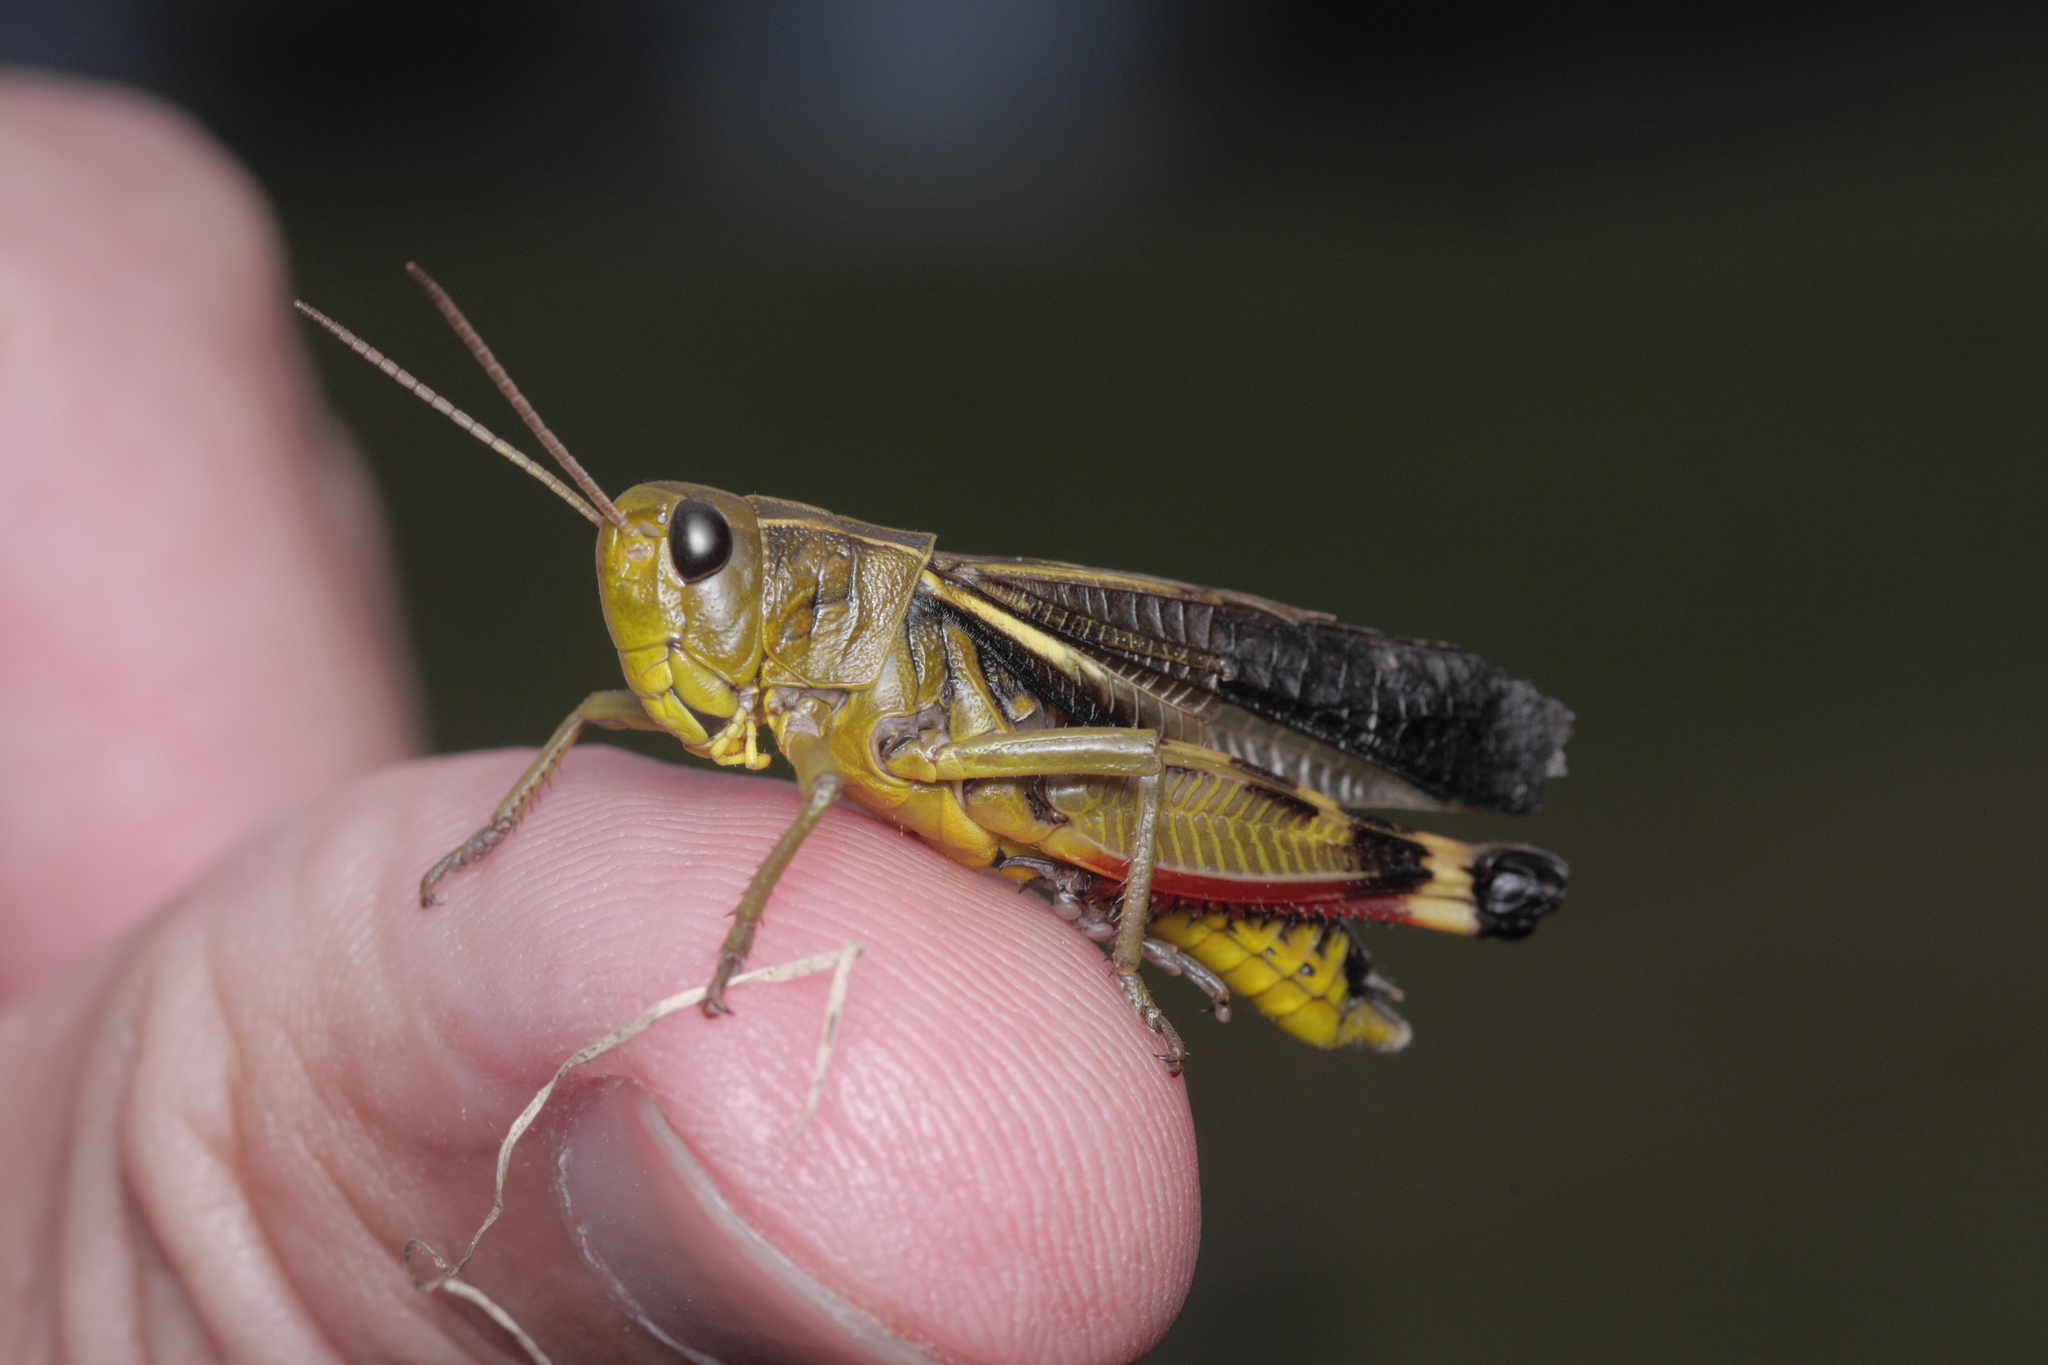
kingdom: Animalia
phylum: Arthropoda
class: Insecta
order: Orthoptera
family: Acrididae
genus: Arcyptera
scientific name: Arcyptera fusca
